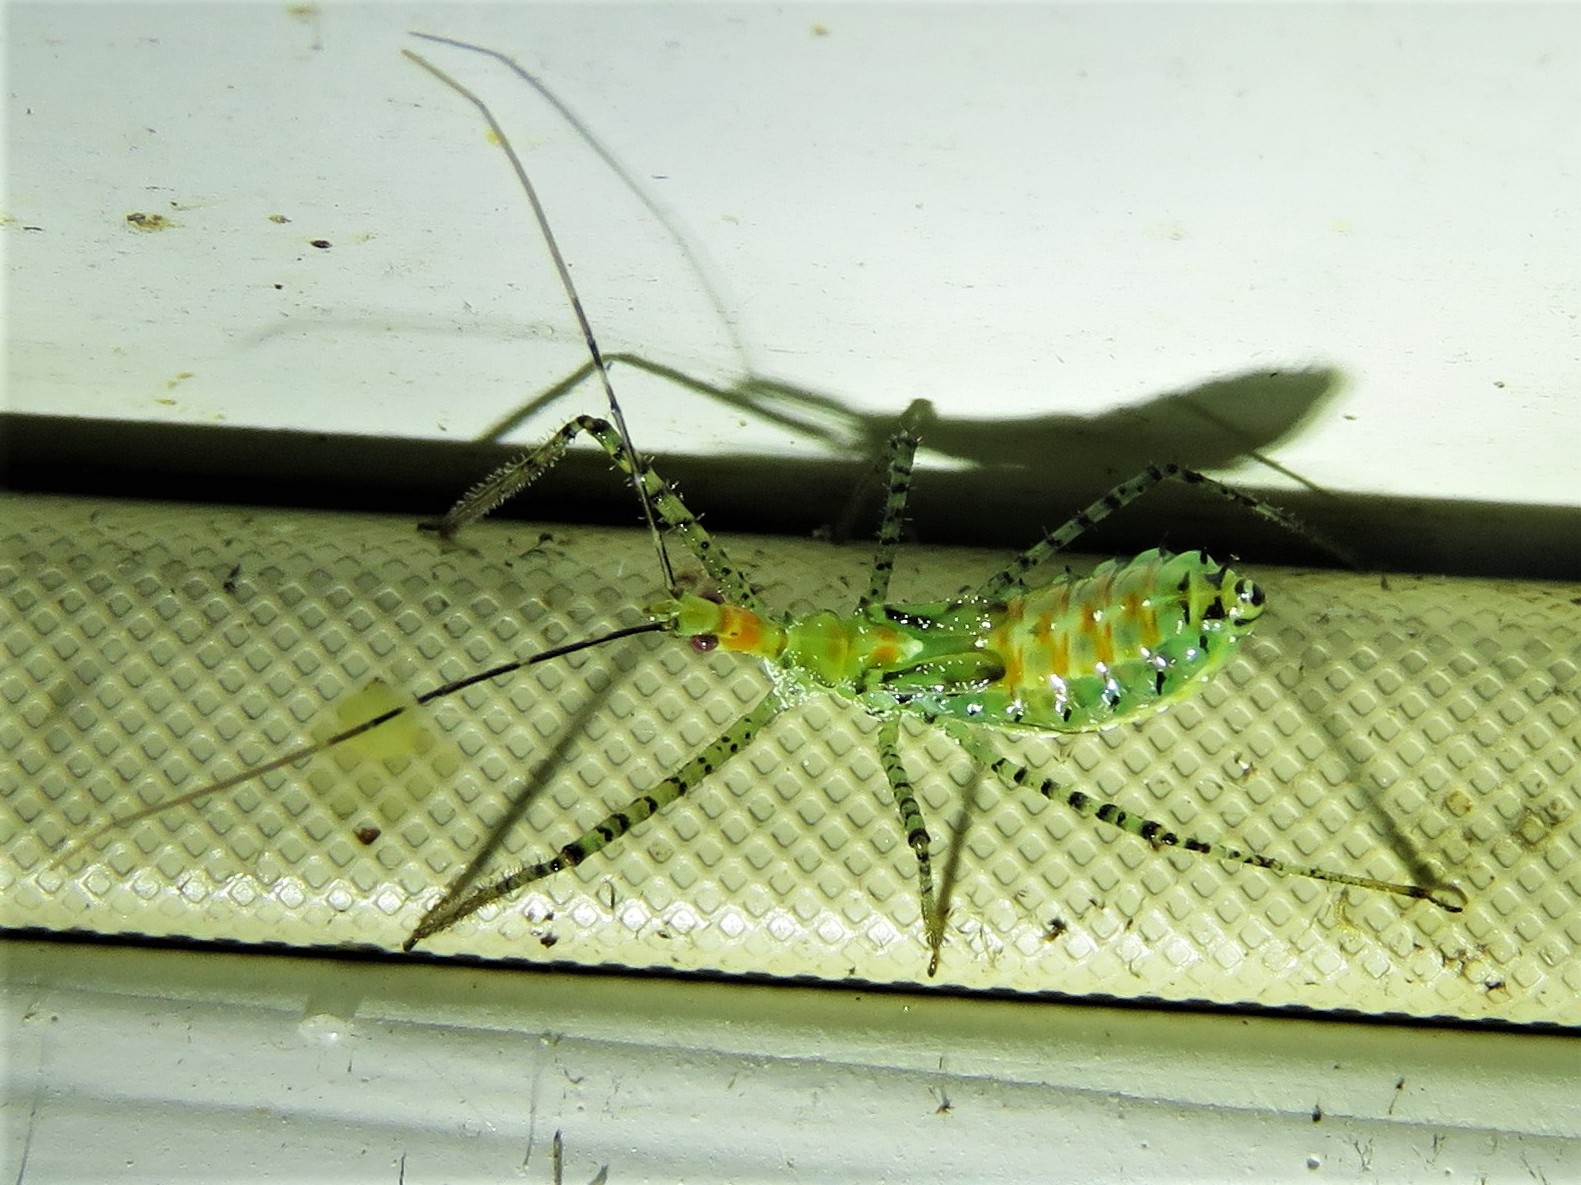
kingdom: Animalia
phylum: Arthropoda
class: Insecta
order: Hemiptera
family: Reduviidae
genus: Zelus
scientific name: Zelus renardii
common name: Assassin bug
